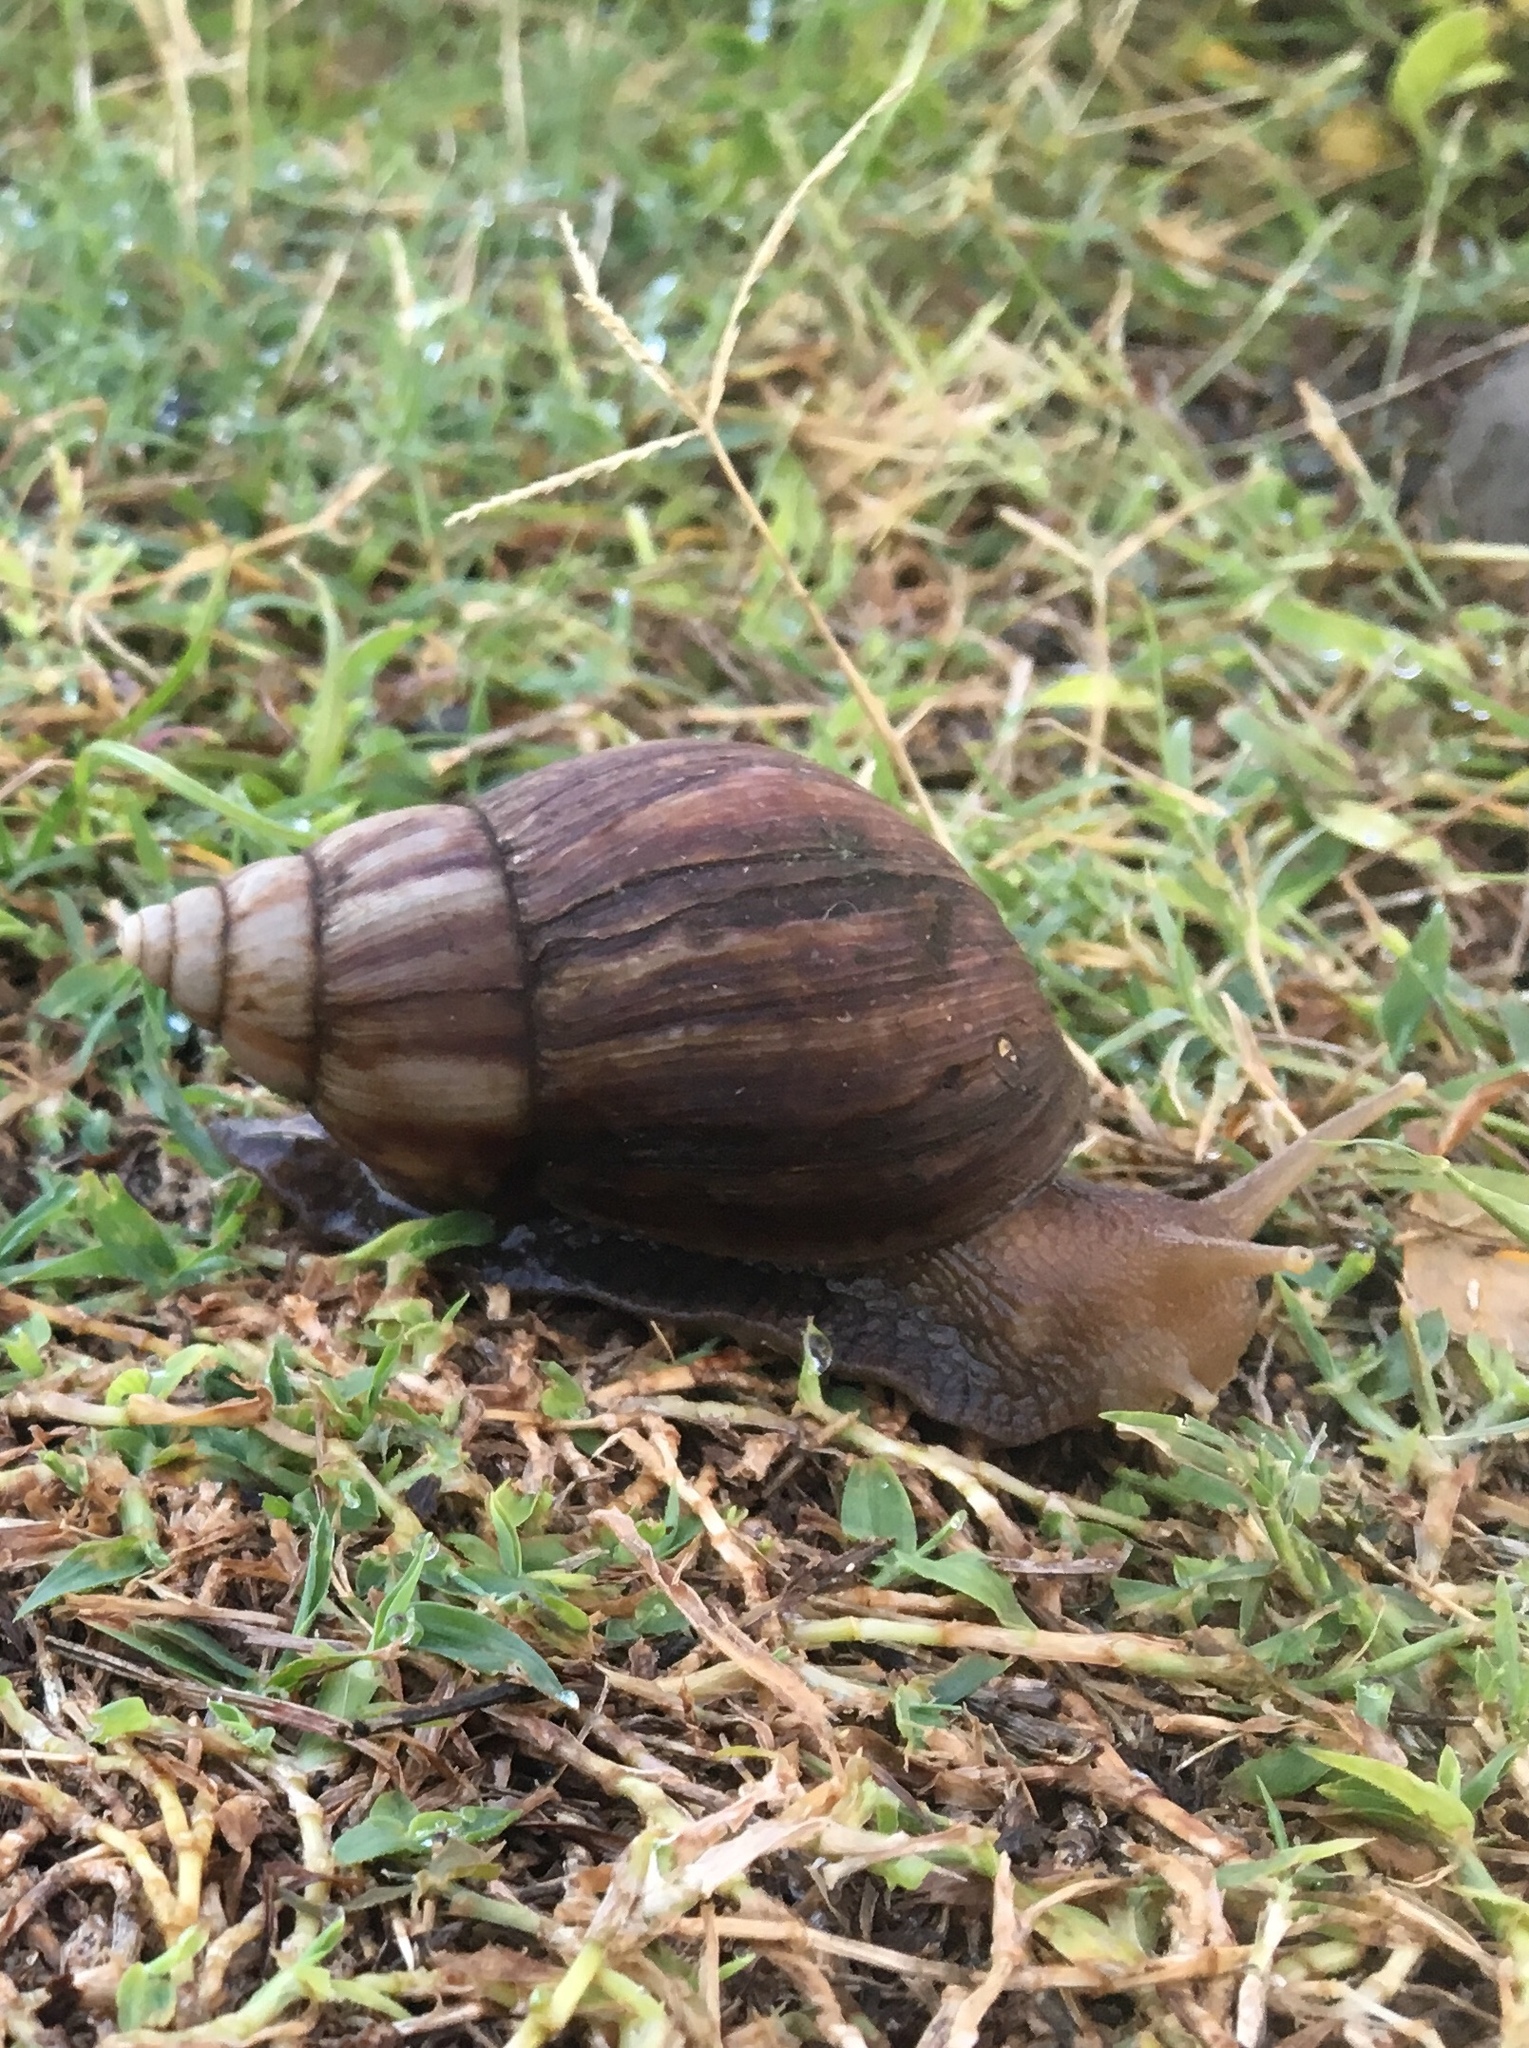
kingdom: Animalia
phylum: Mollusca
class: Gastropoda
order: Stylommatophora
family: Achatinidae
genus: Lissachatina
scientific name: Lissachatina fulica
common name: Giant african snail
